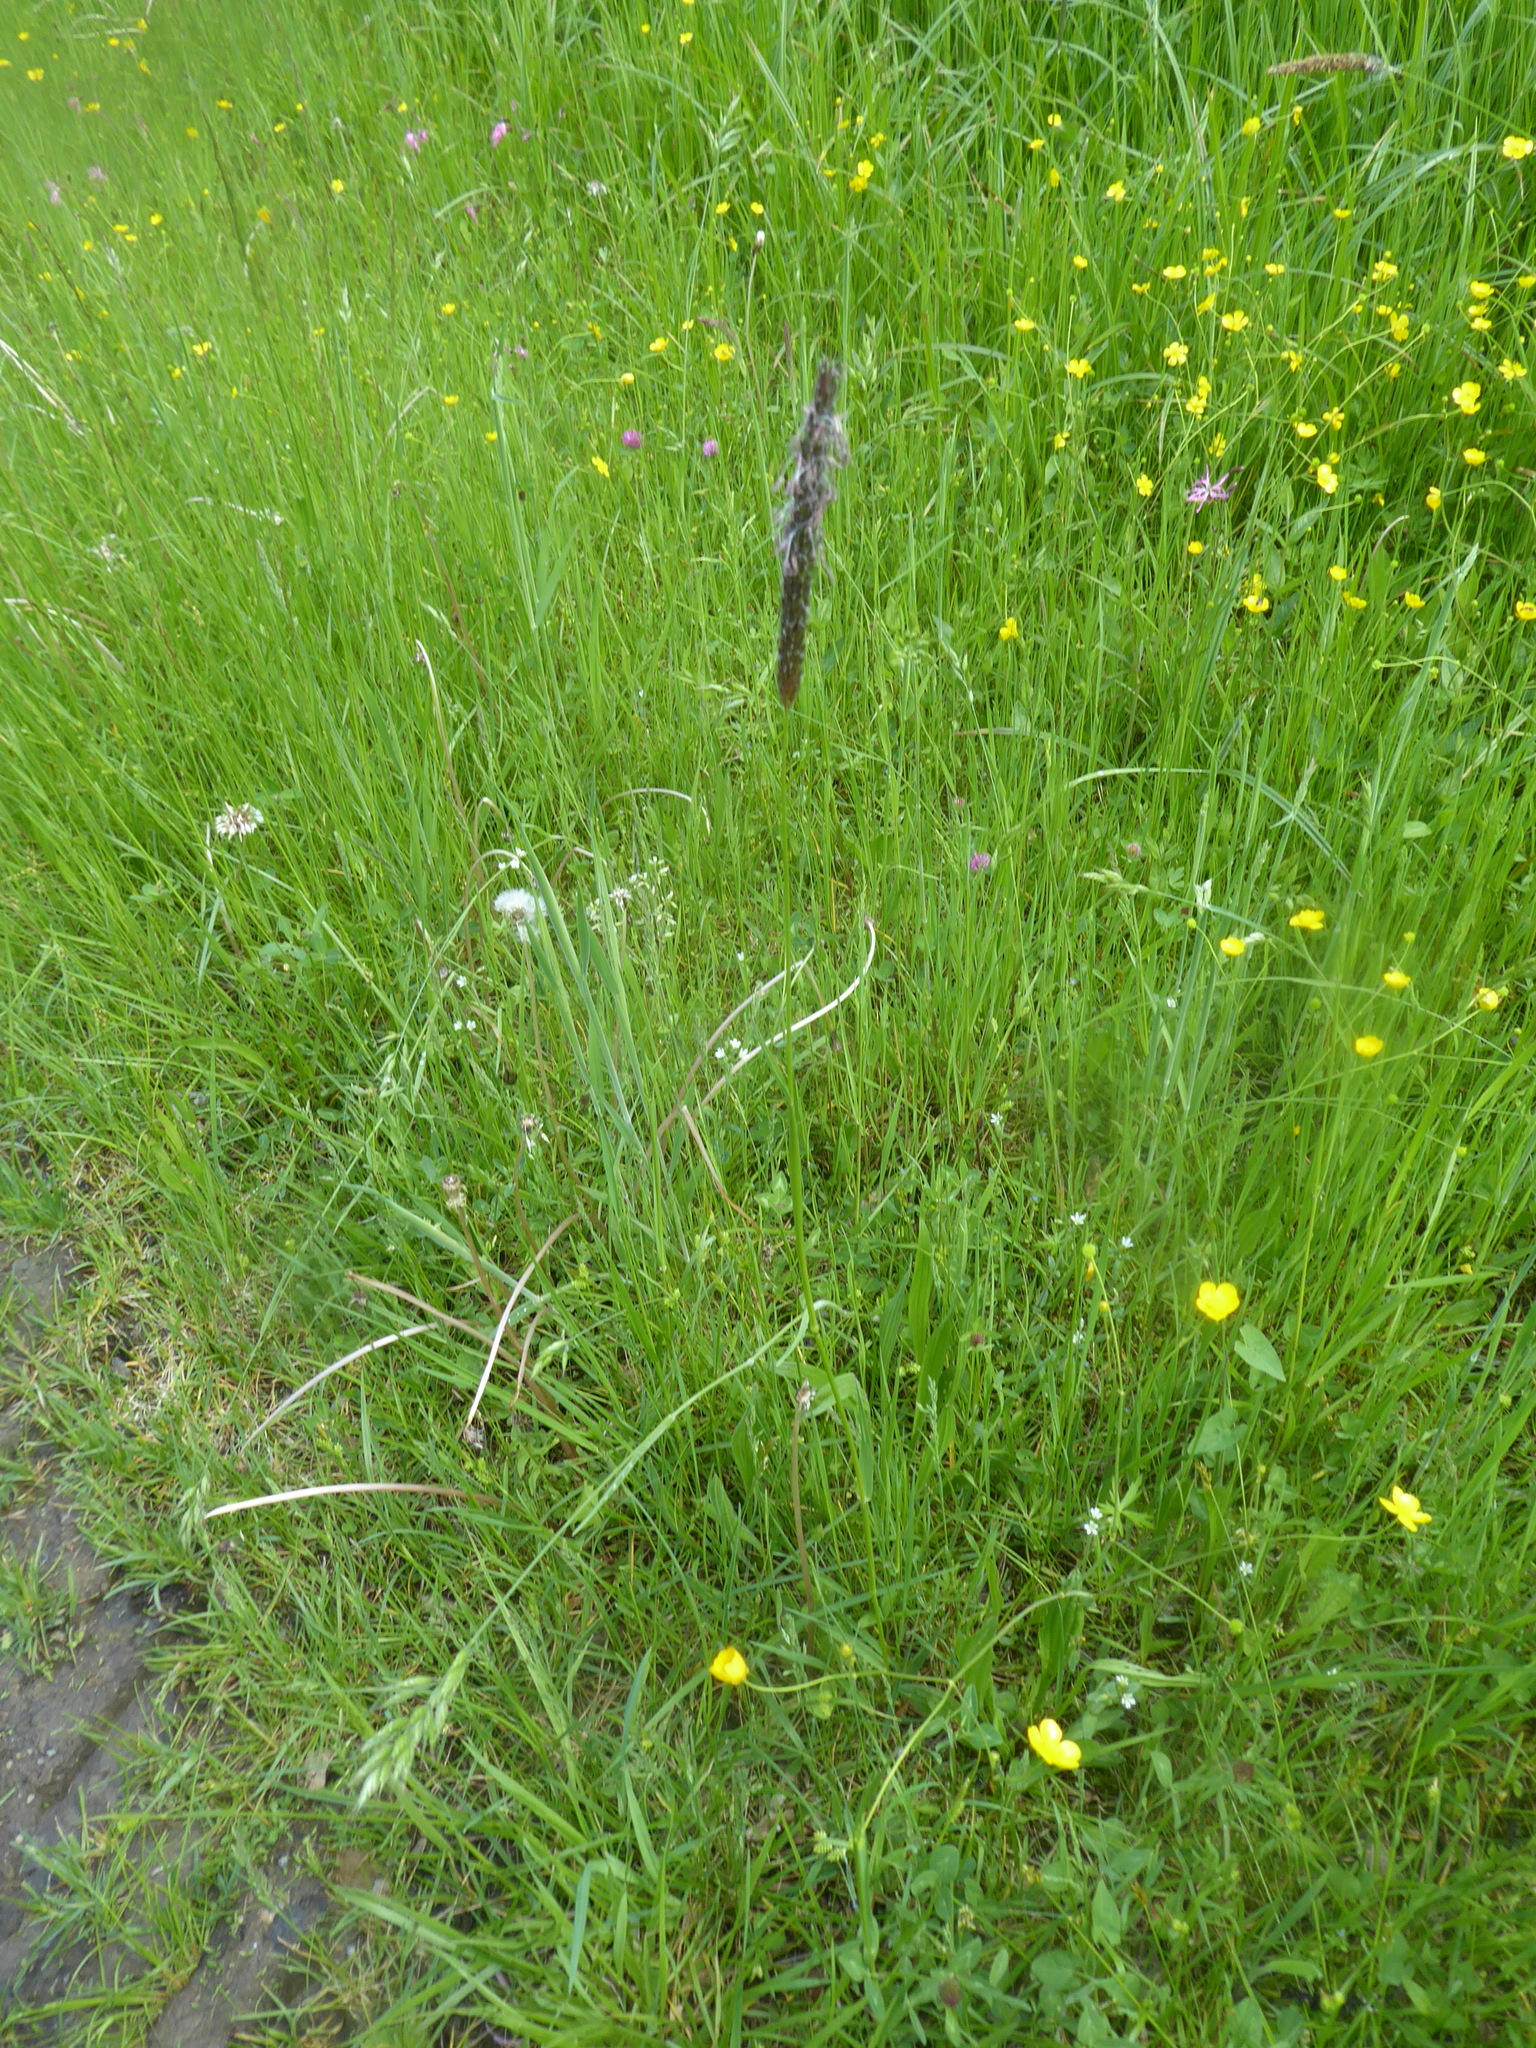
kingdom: Plantae
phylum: Tracheophyta
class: Liliopsida
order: Poales
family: Poaceae
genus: Alopecurus
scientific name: Alopecurus pratensis
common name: Meadow foxtail
